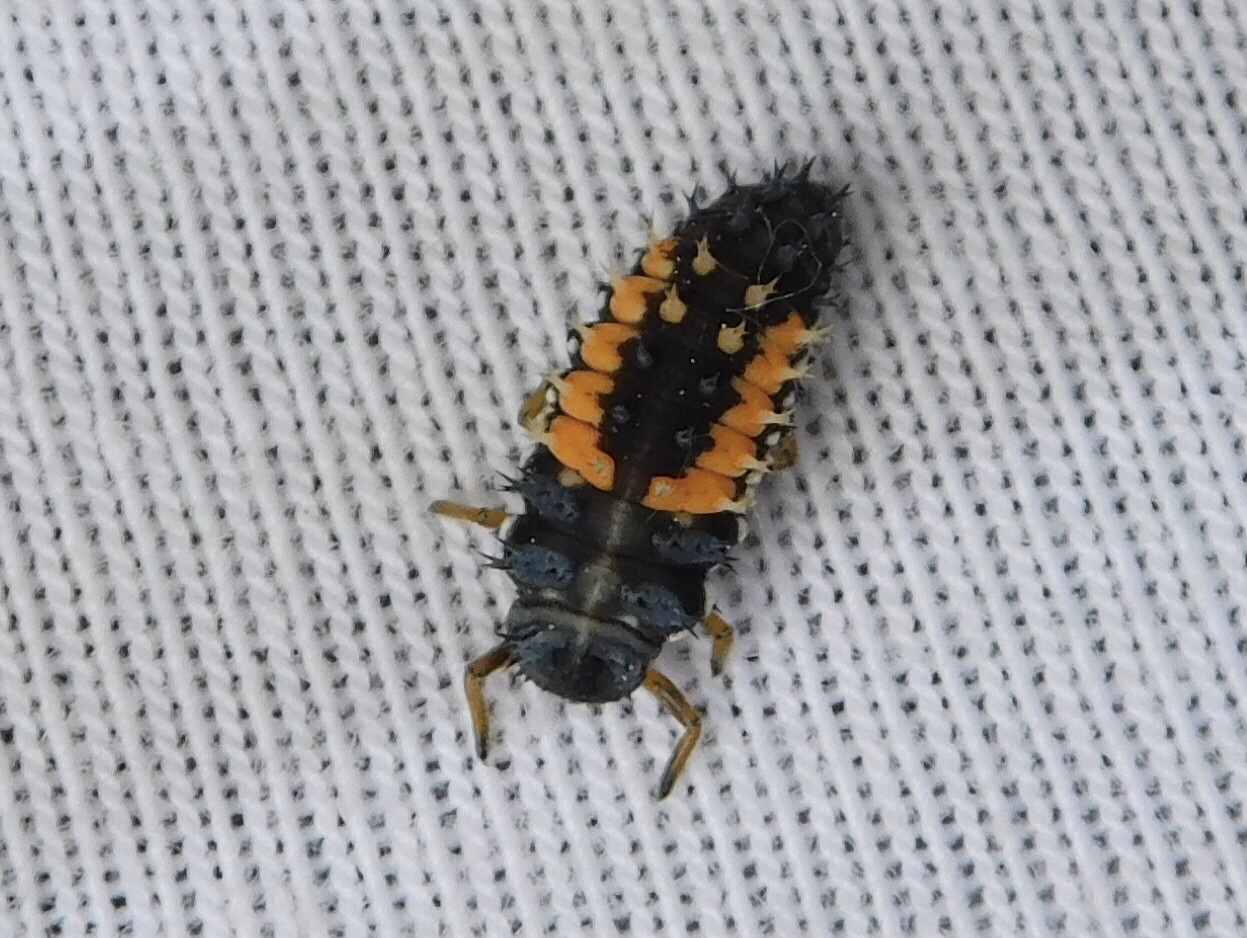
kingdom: Animalia
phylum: Arthropoda
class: Insecta
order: Coleoptera
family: Coccinellidae
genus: Harmonia
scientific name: Harmonia axyridis
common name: Harlequin ladybird
